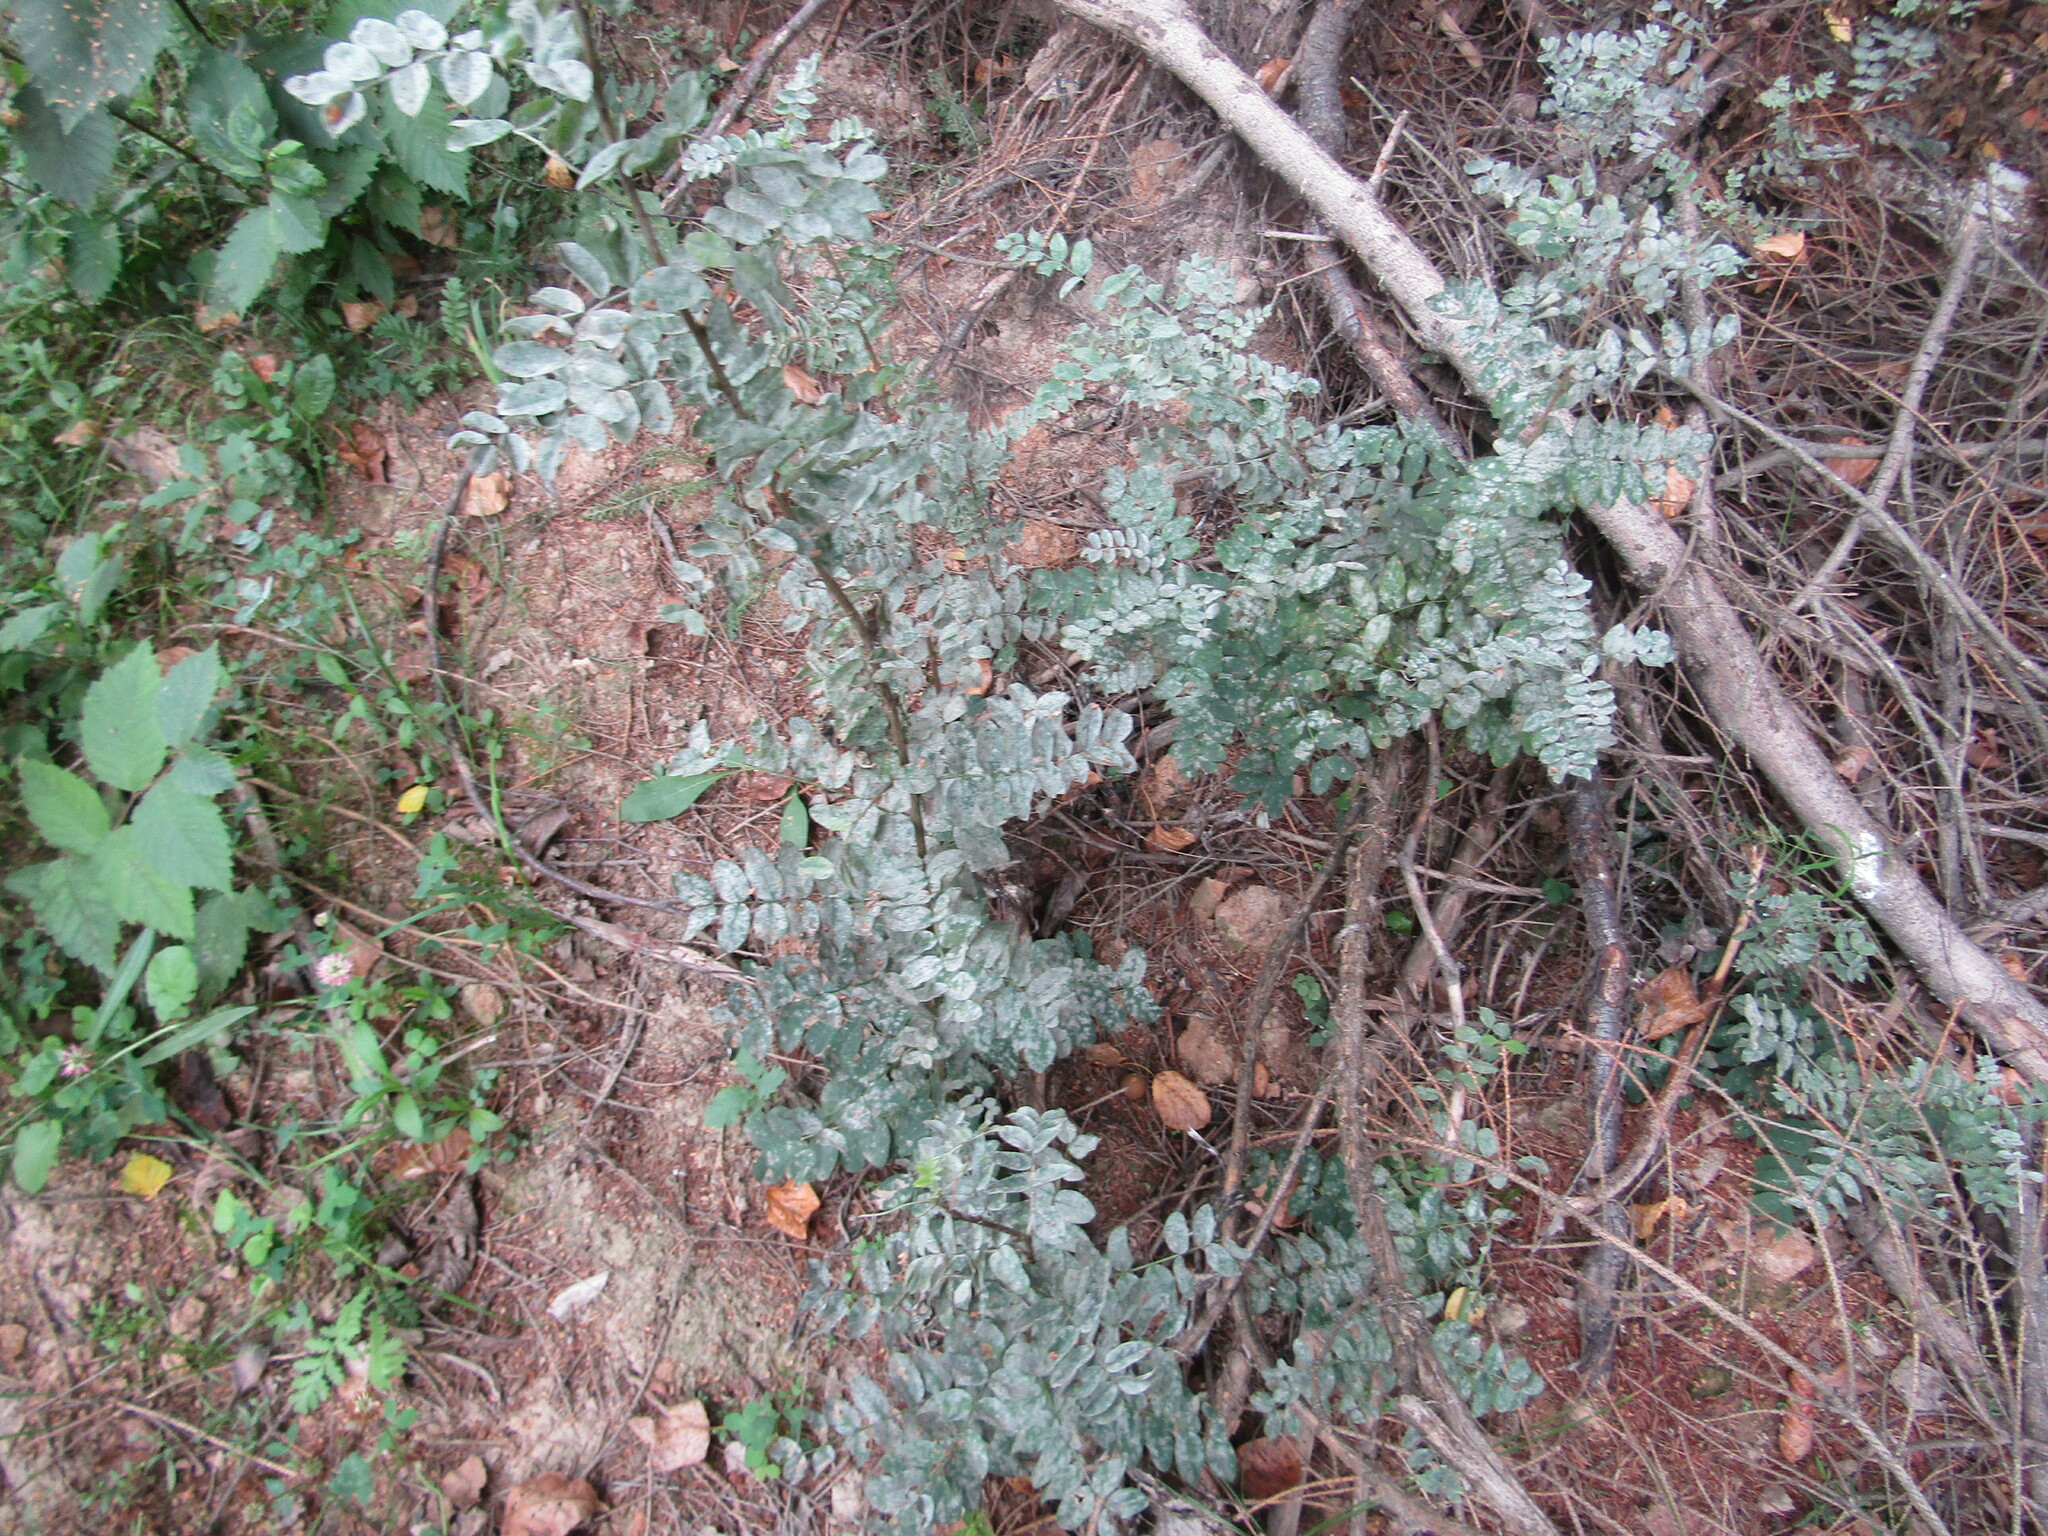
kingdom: Plantae
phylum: Tracheophyta
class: Magnoliopsida
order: Fabales
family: Fabaceae
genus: Caragana
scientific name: Caragana arborescens
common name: Siberian peashrub
